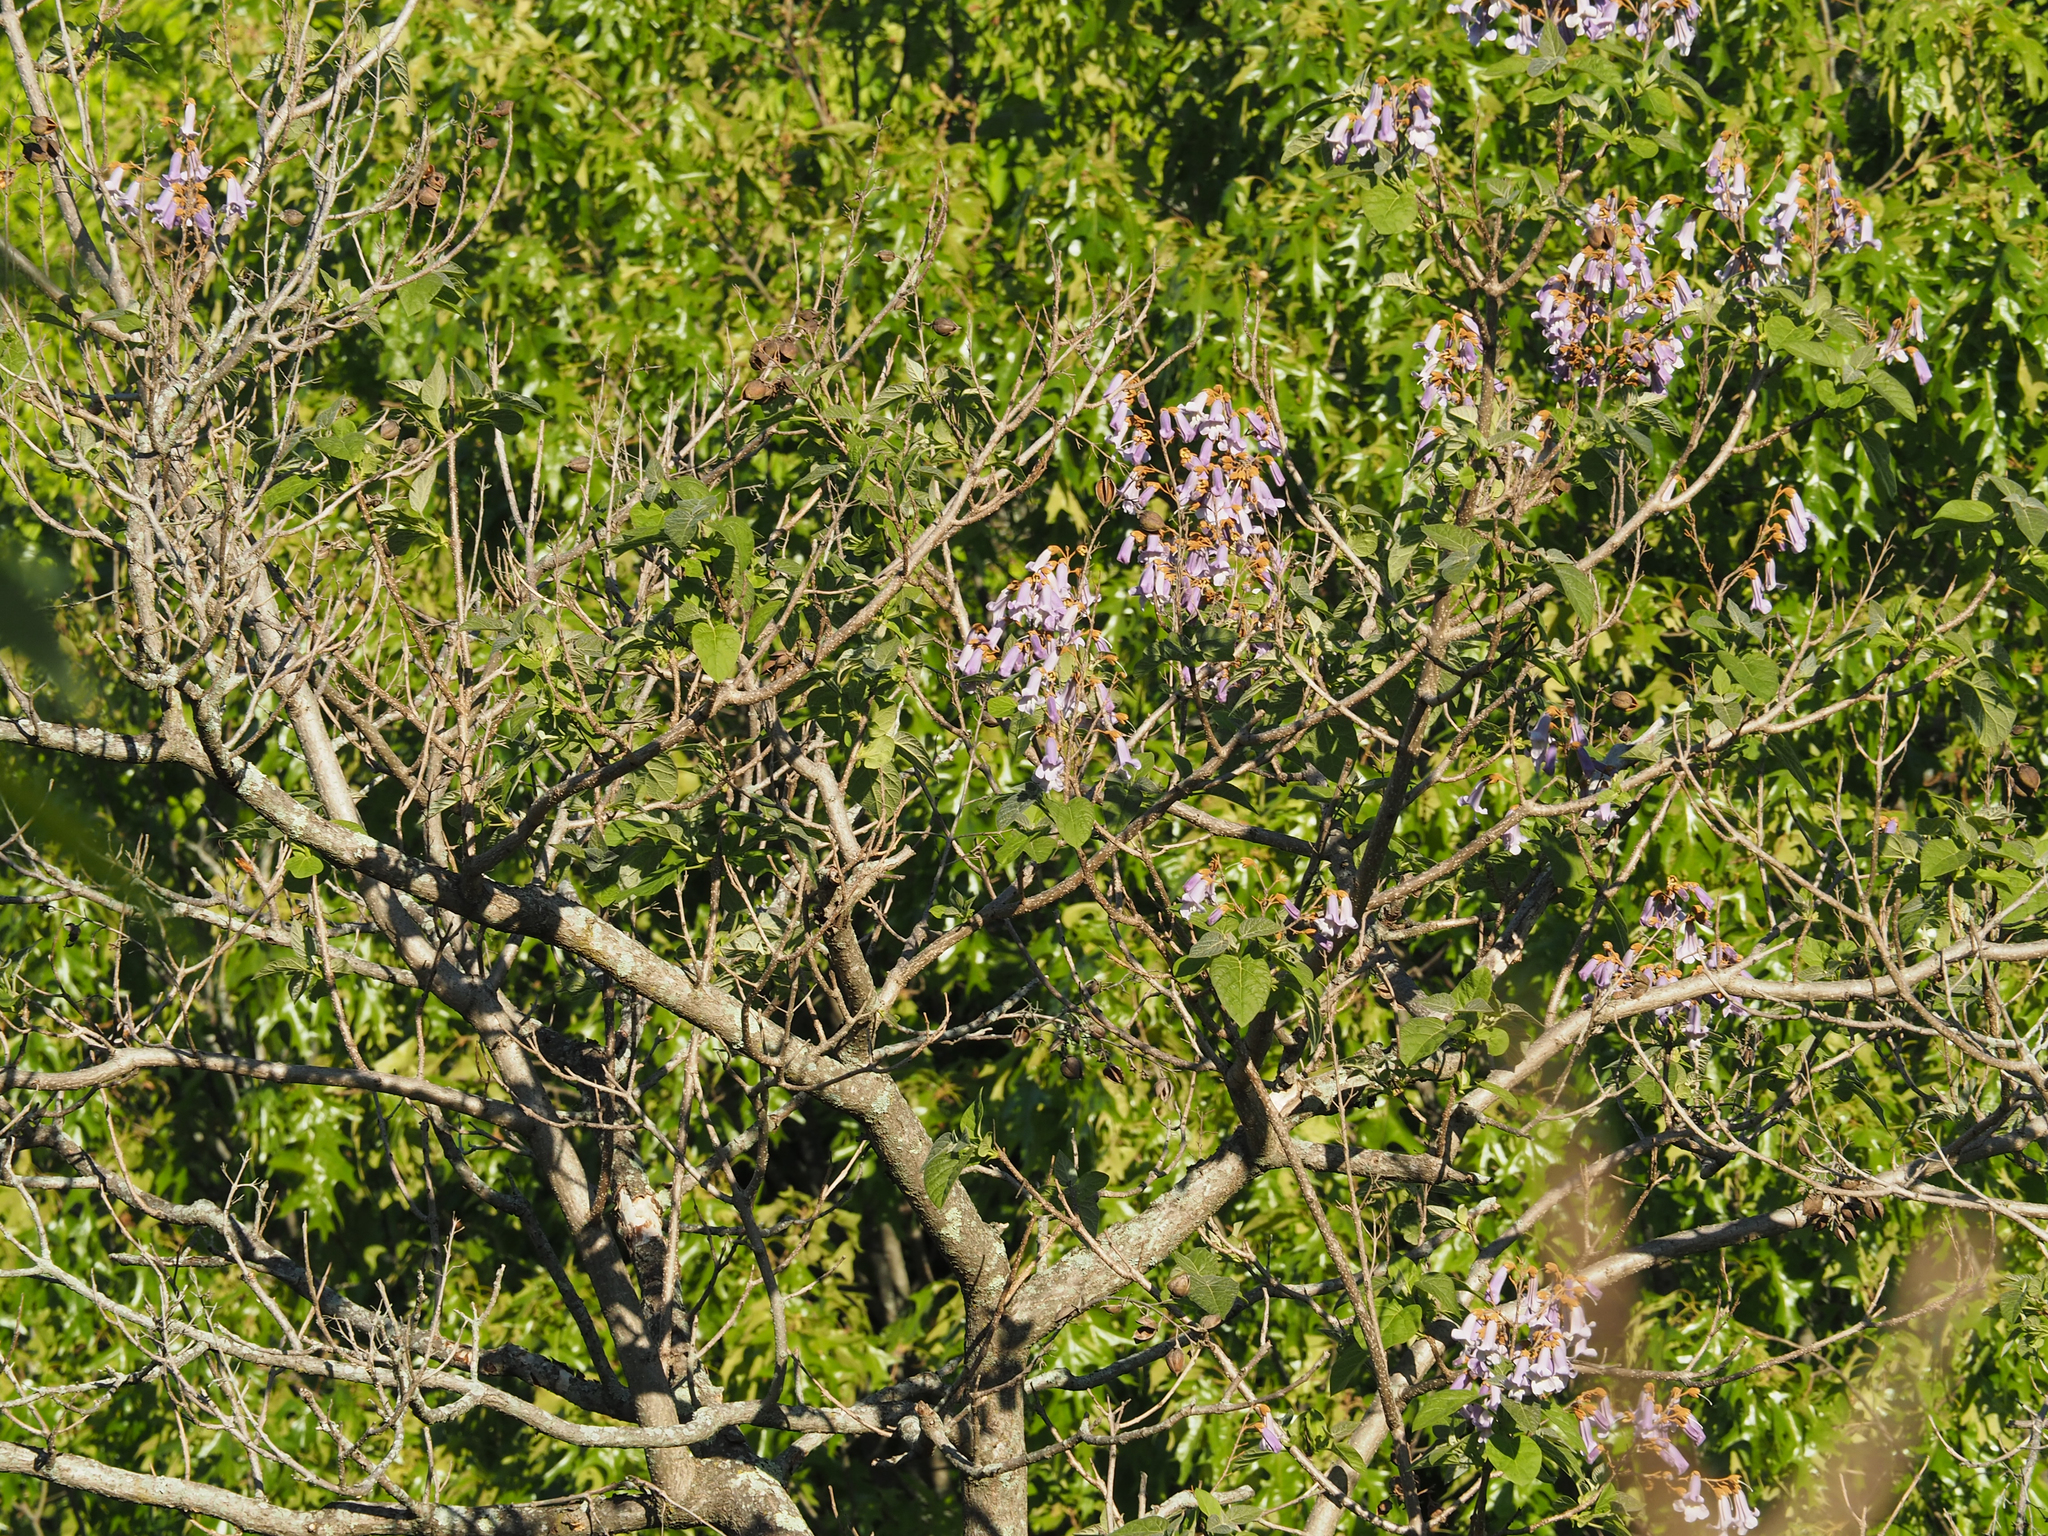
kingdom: Plantae
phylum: Tracheophyta
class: Magnoliopsida
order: Lamiales
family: Paulowniaceae
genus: Paulownia
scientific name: Paulownia tomentosa
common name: Foxglove-tree
